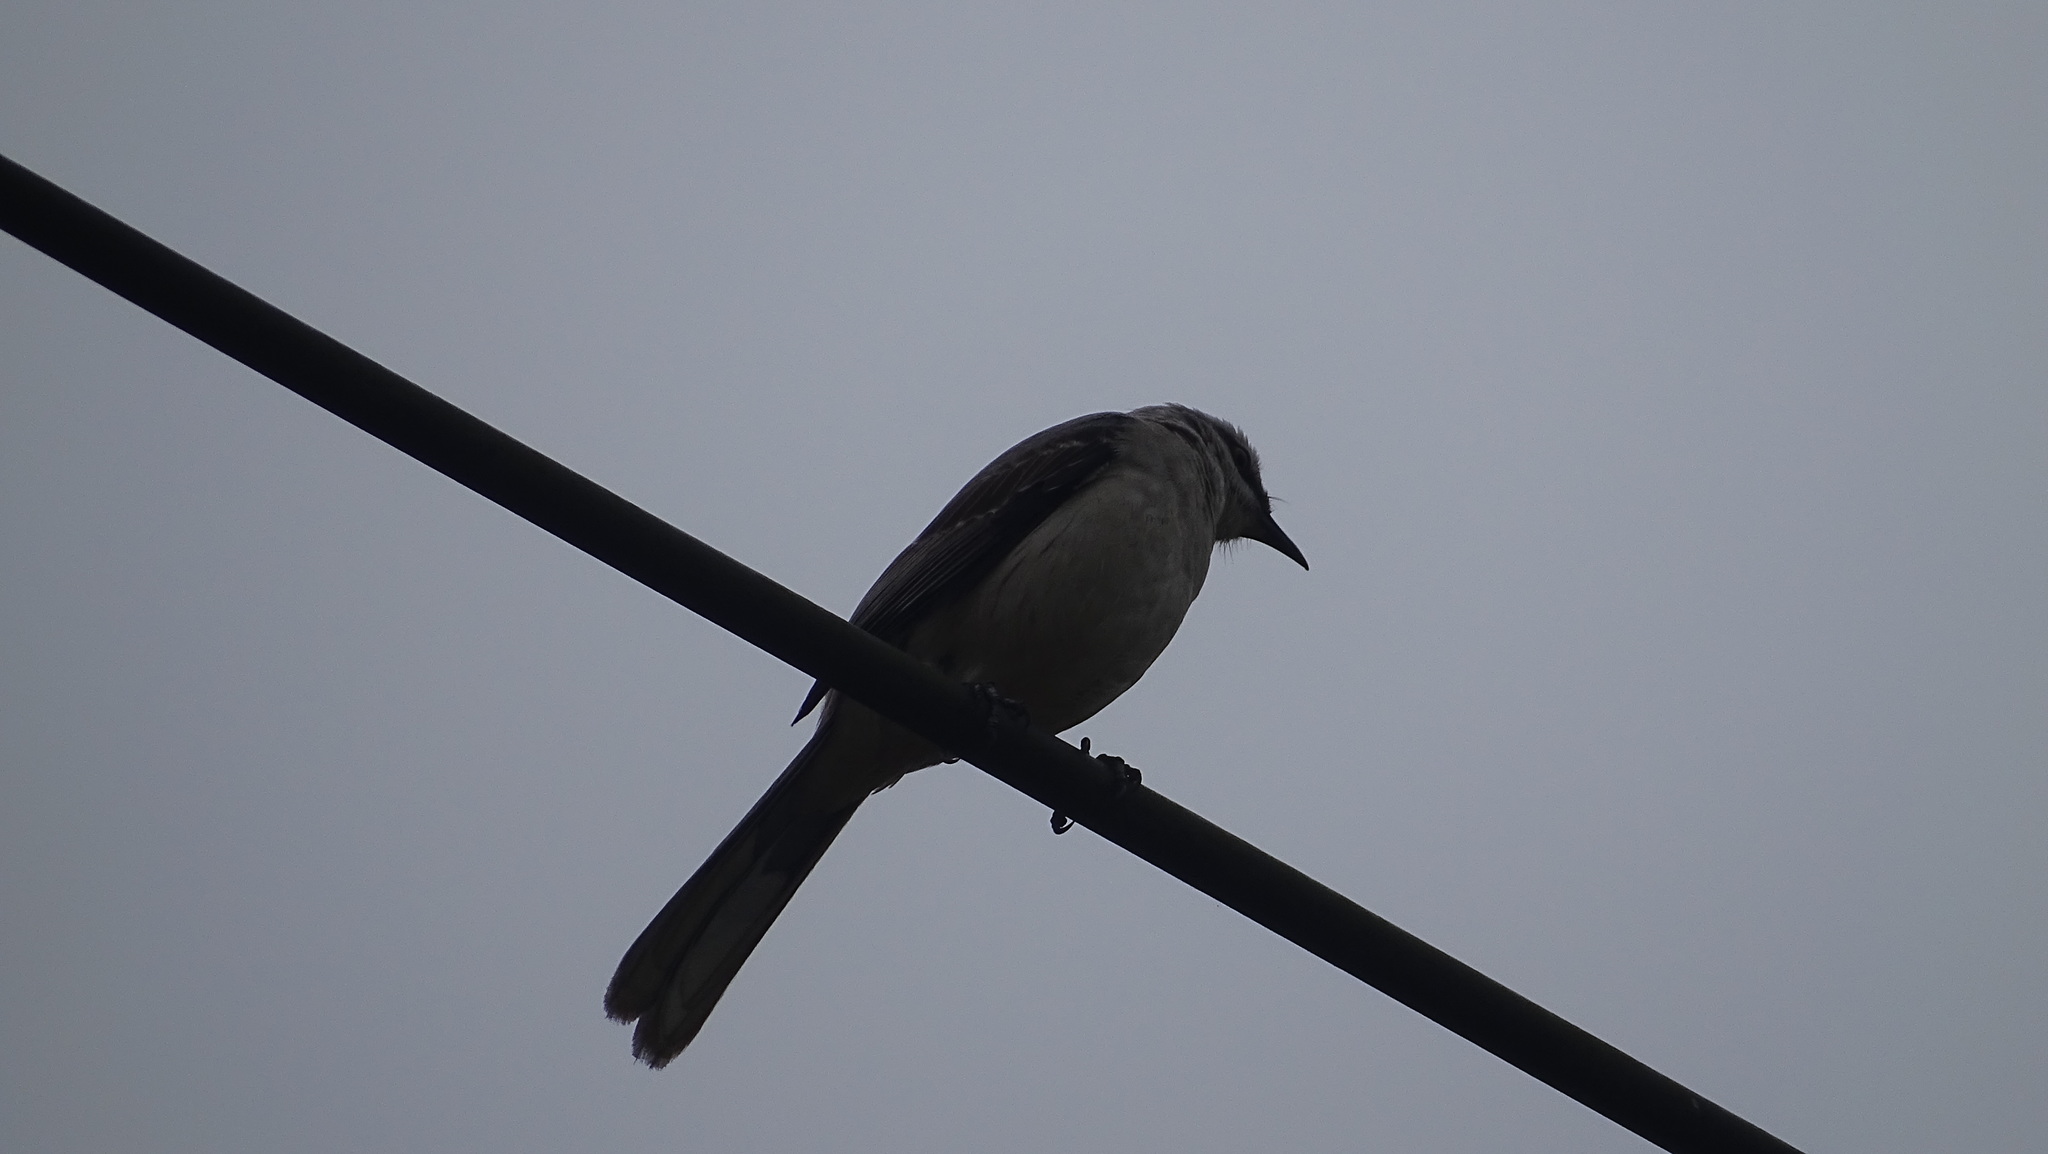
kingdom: Animalia
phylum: Chordata
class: Aves
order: Passeriformes
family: Mimidae
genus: Mimus
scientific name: Mimus gilvus
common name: Tropical mockingbird
